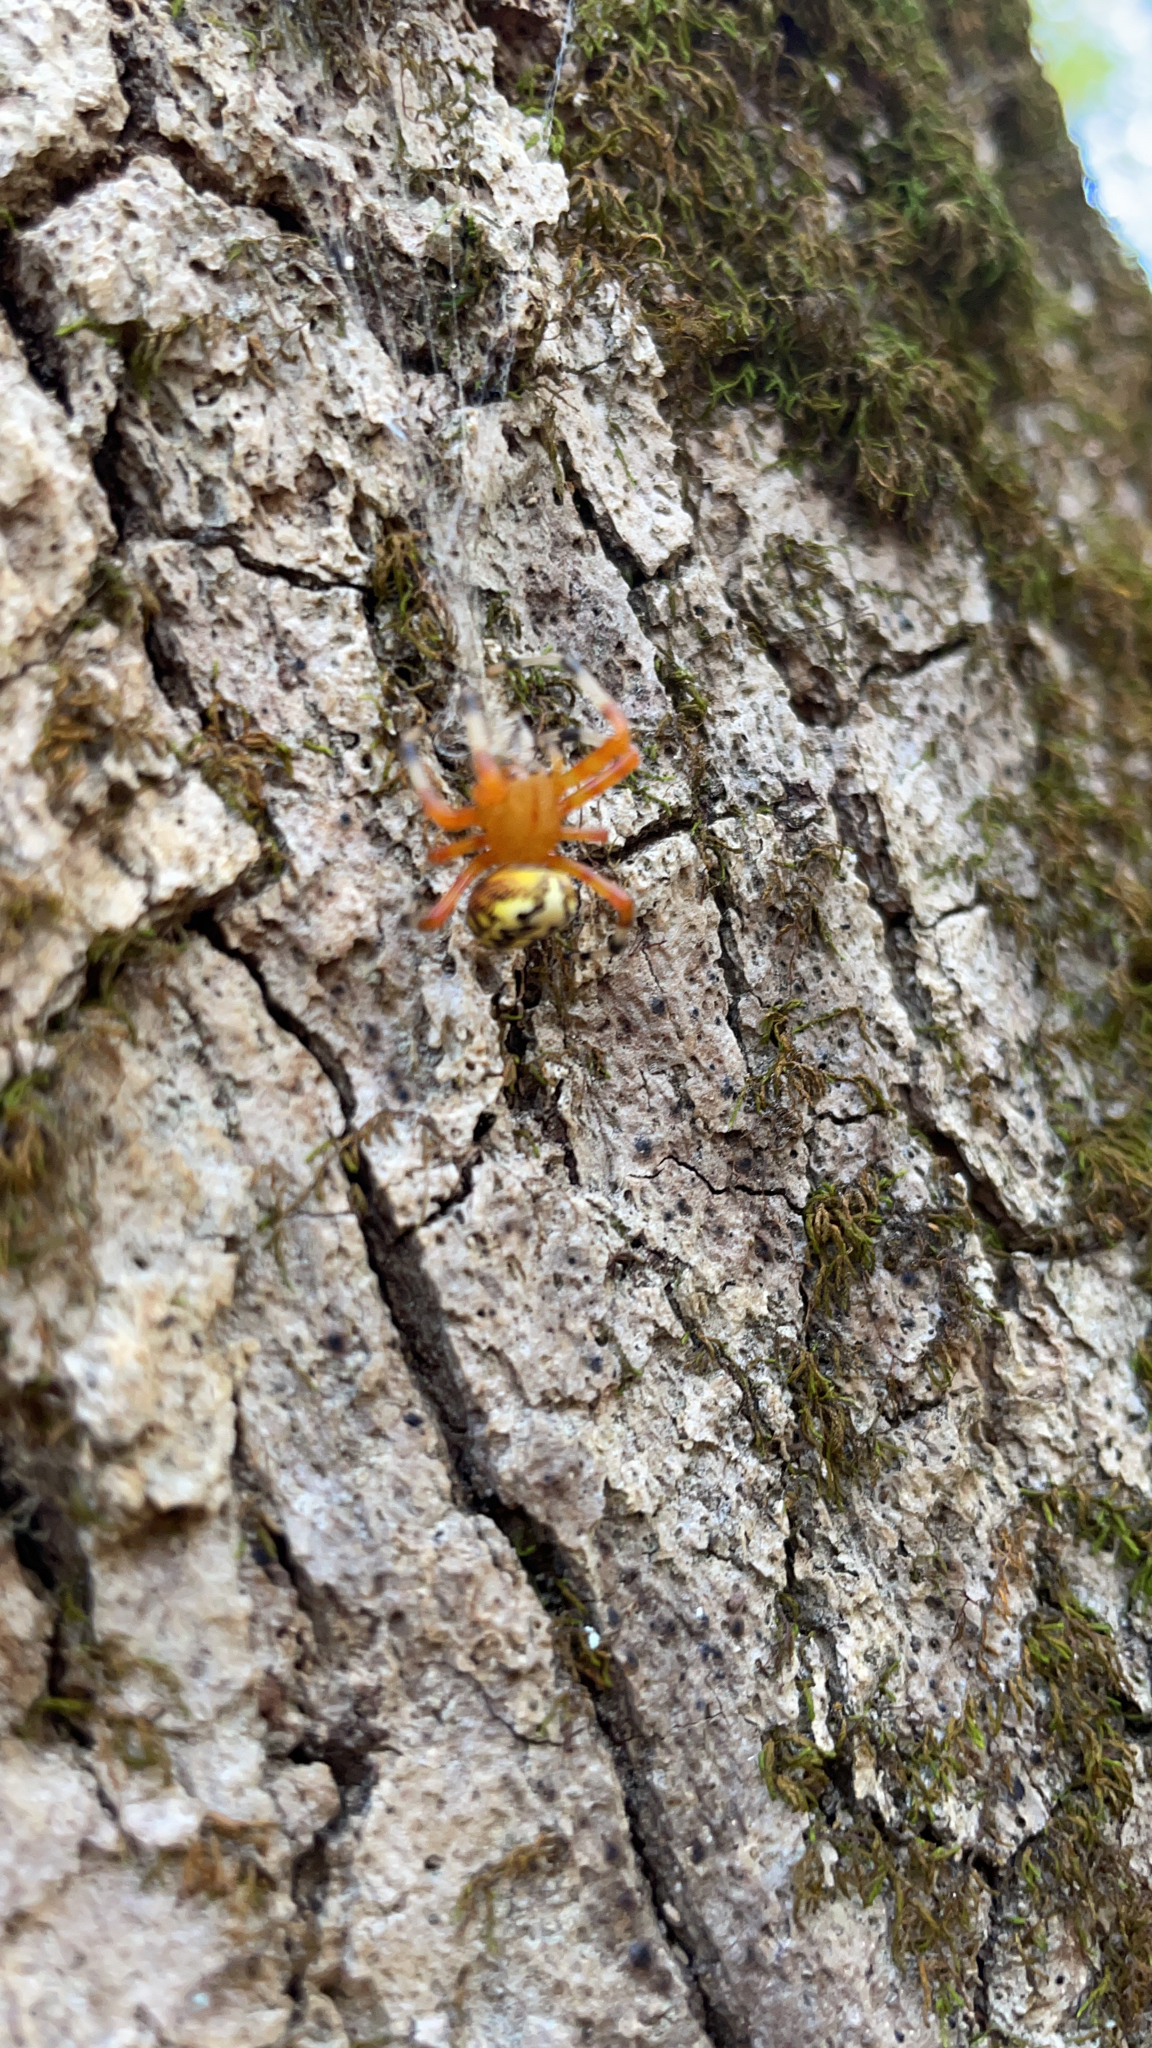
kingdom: Animalia
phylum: Arthropoda
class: Arachnida
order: Araneae
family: Araneidae
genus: Araneus
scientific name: Araneus marmoreus
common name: Marbled orbweaver
